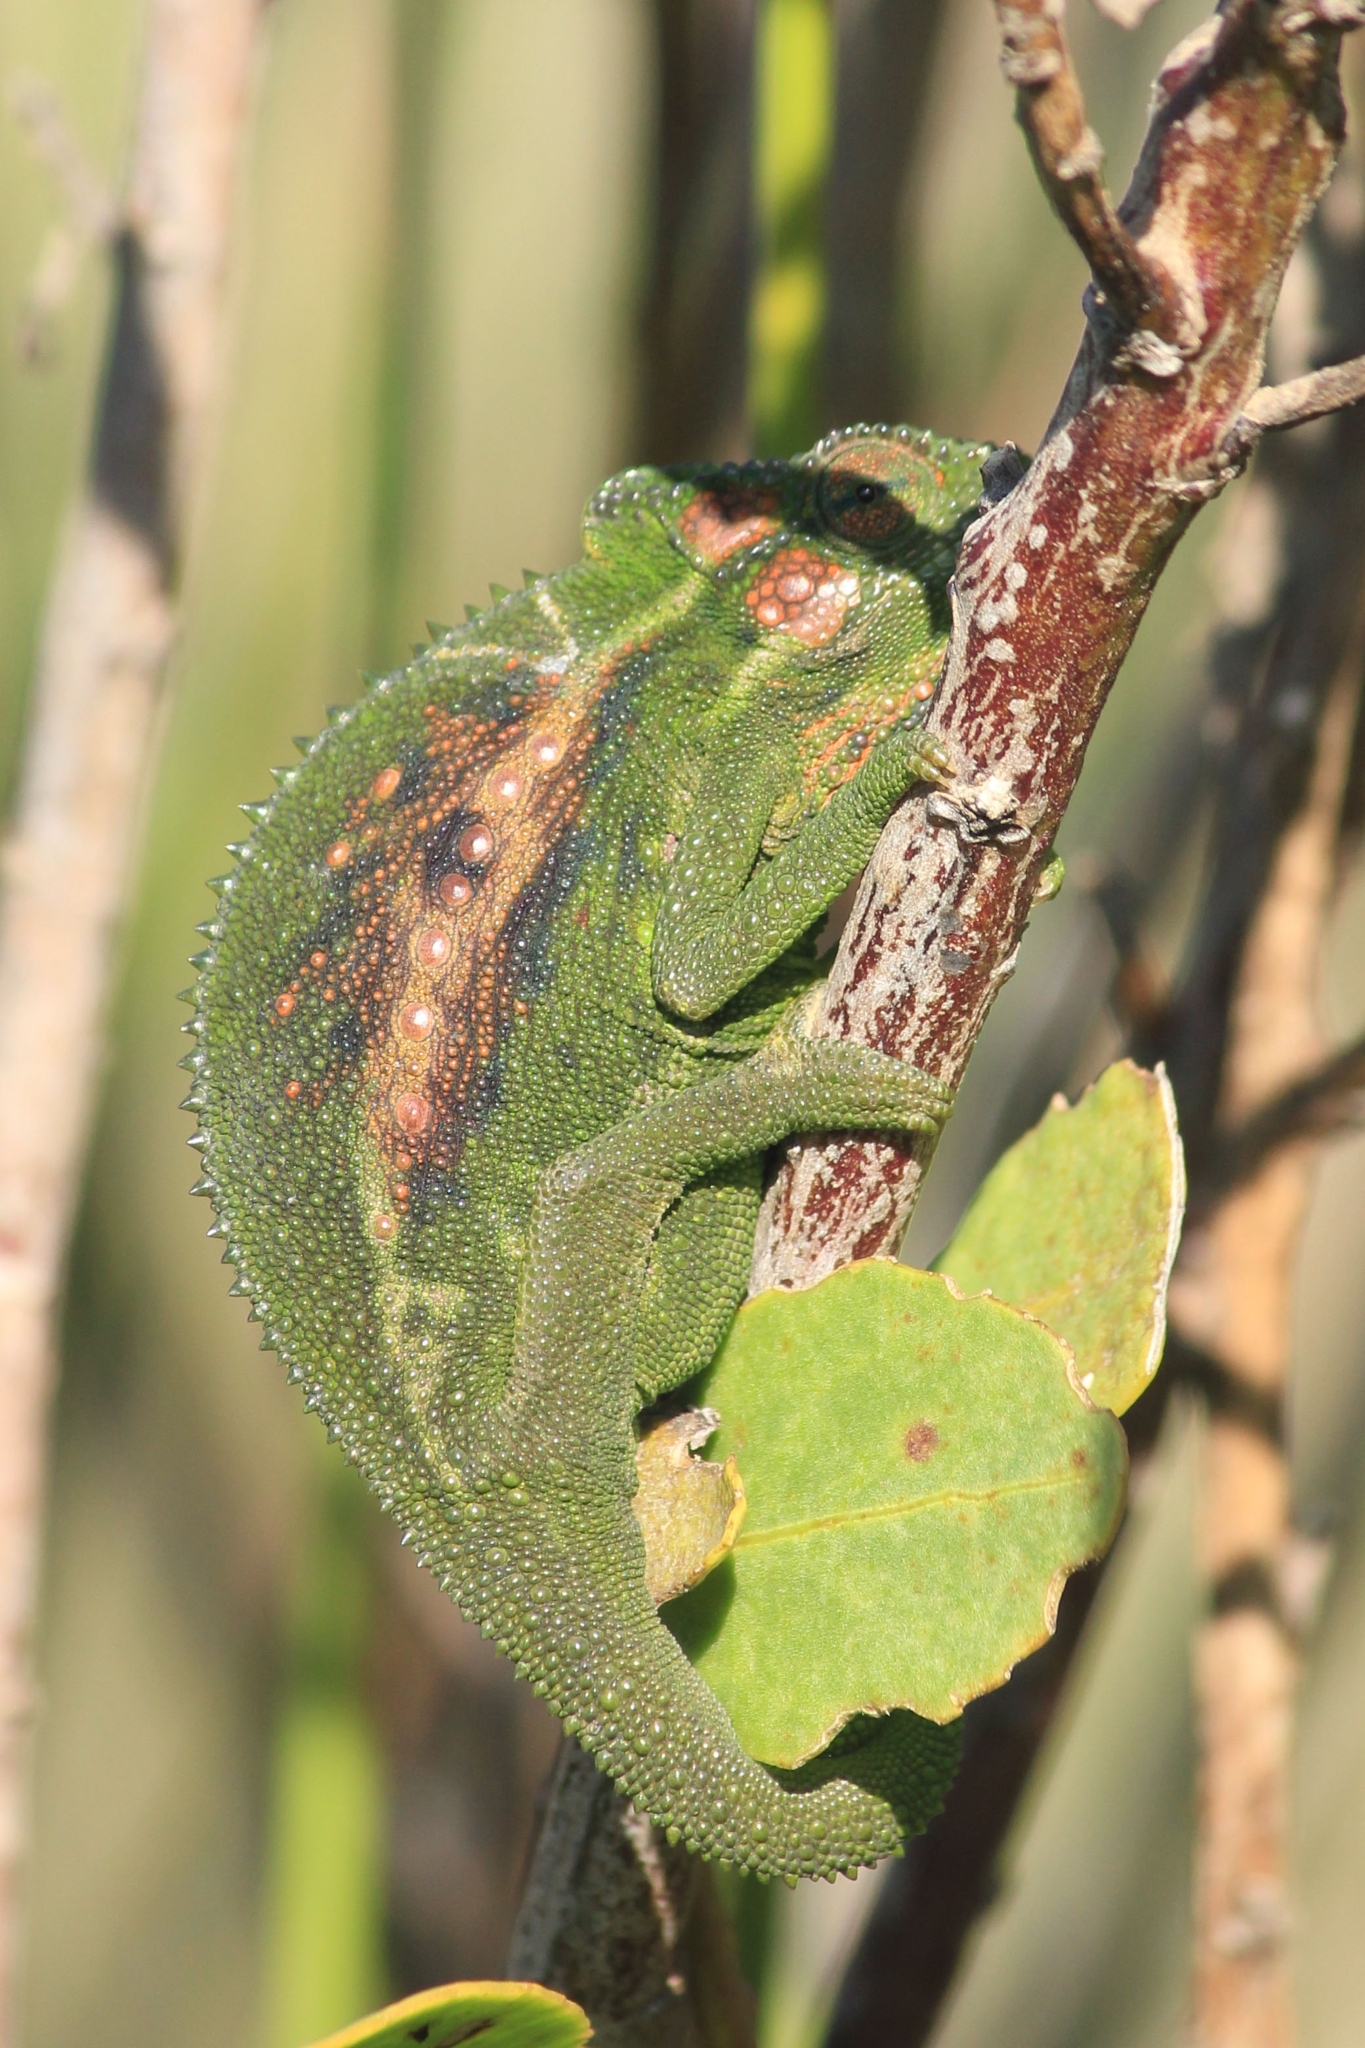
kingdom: Animalia
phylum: Chordata
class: Squamata
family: Chamaeleonidae
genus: Bradypodion
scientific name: Bradypodion pumilum
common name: Cape dwarf chameleon
